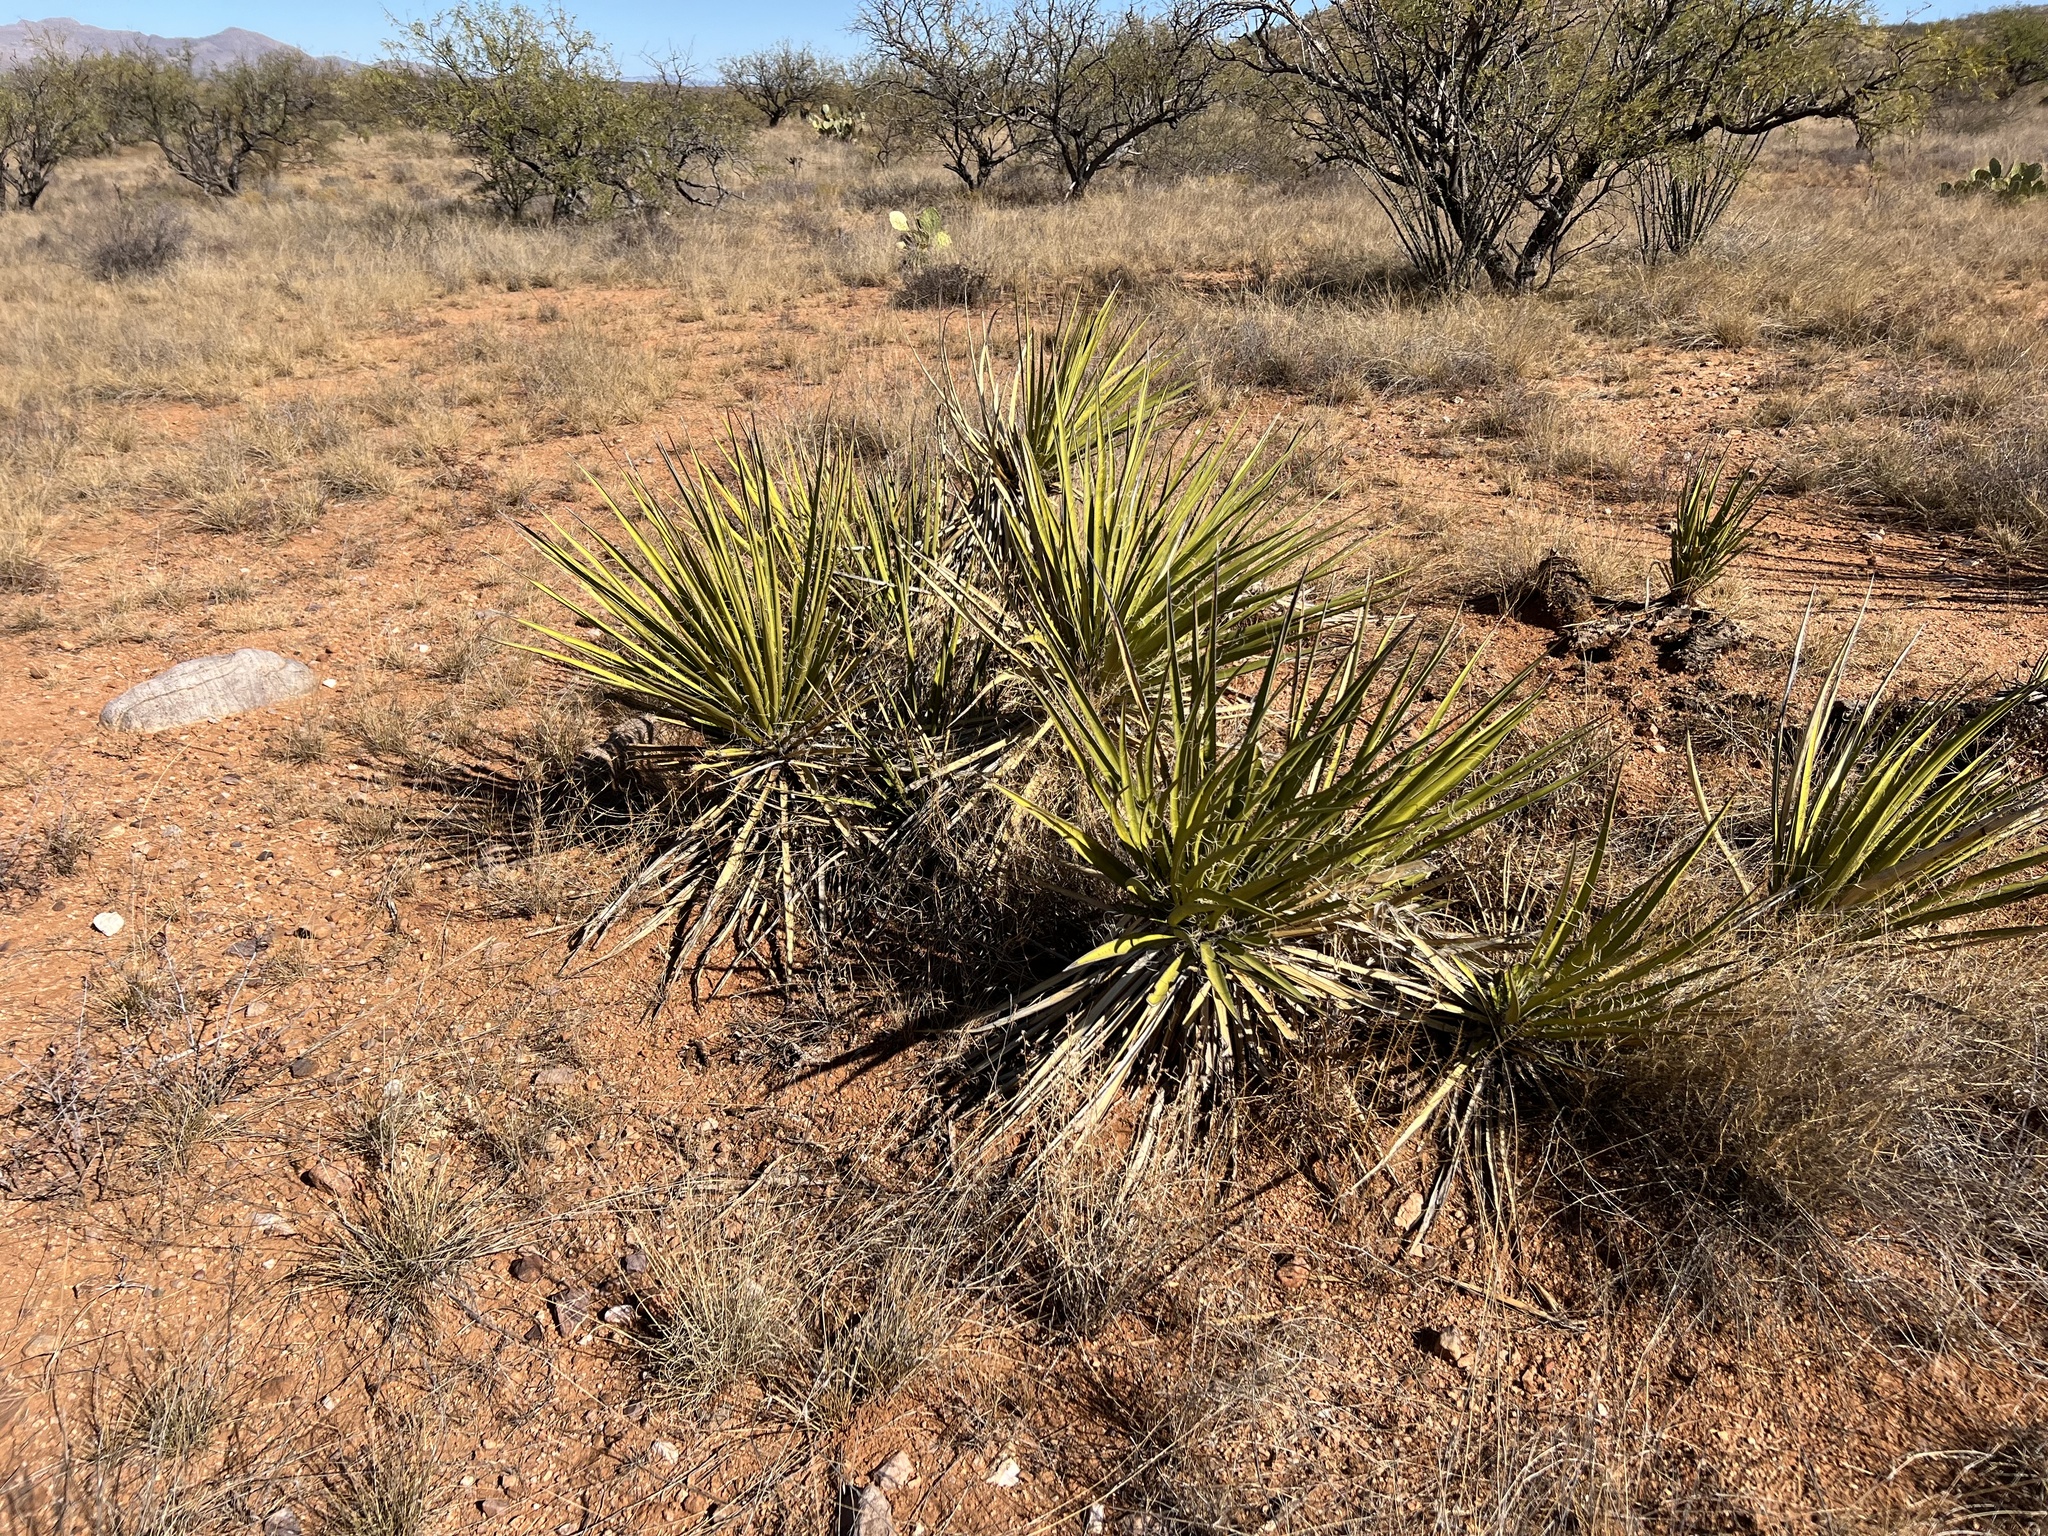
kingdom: Plantae
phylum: Tracheophyta
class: Liliopsida
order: Asparagales
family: Asparagaceae
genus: Yucca
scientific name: Yucca baccata
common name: Banana yucca
